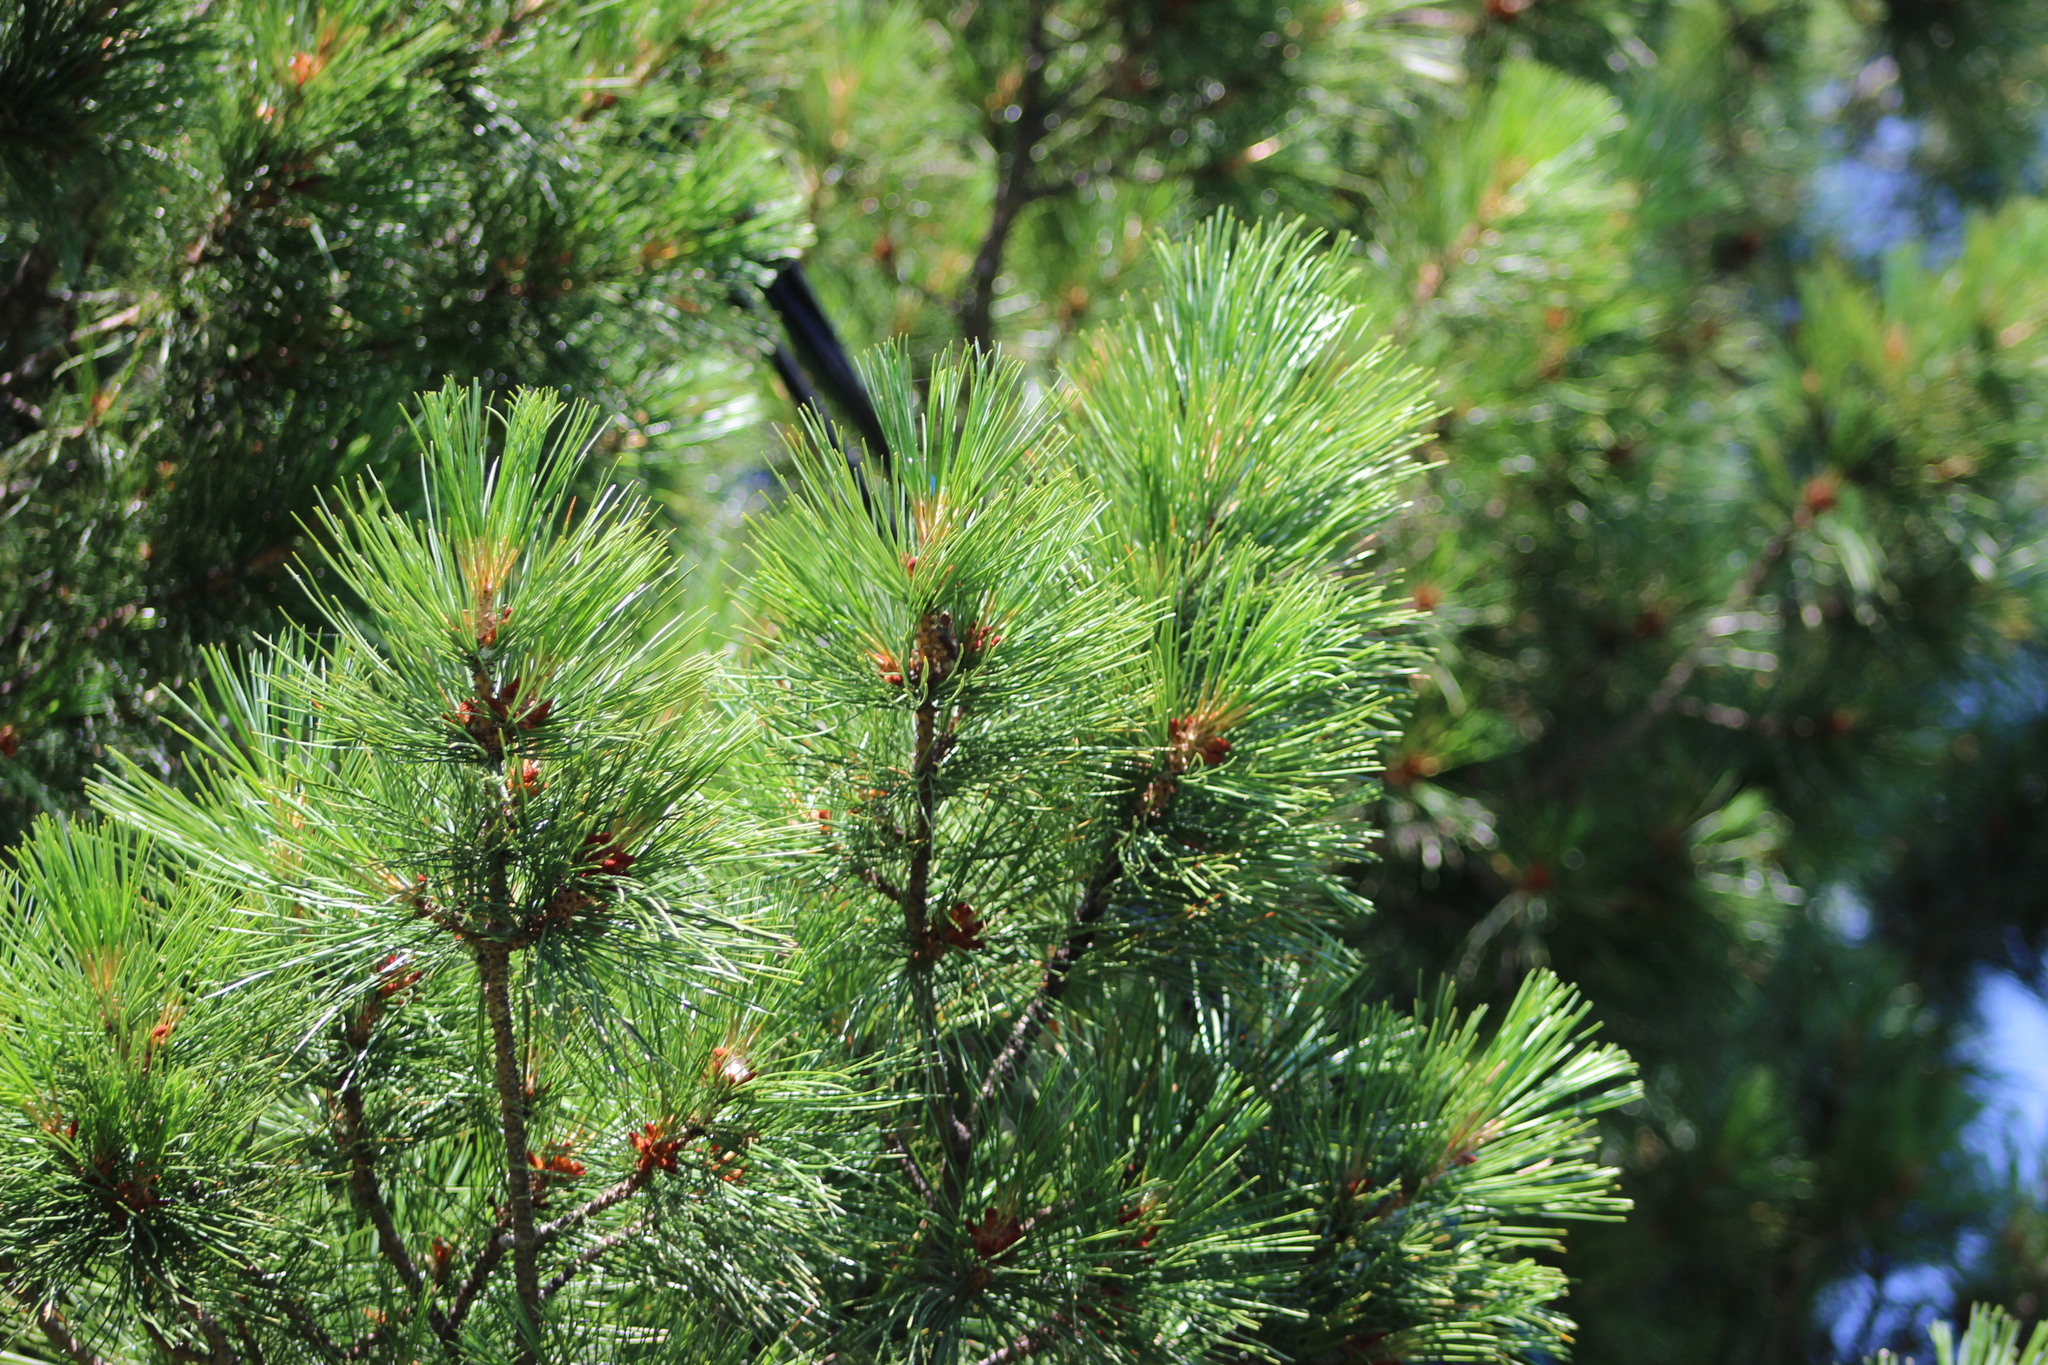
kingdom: Plantae
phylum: Tracheophyta
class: Pinopsida
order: Pinales
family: Pinaceae
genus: Pinus
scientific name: Pinus sibirica
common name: Siberian pine
